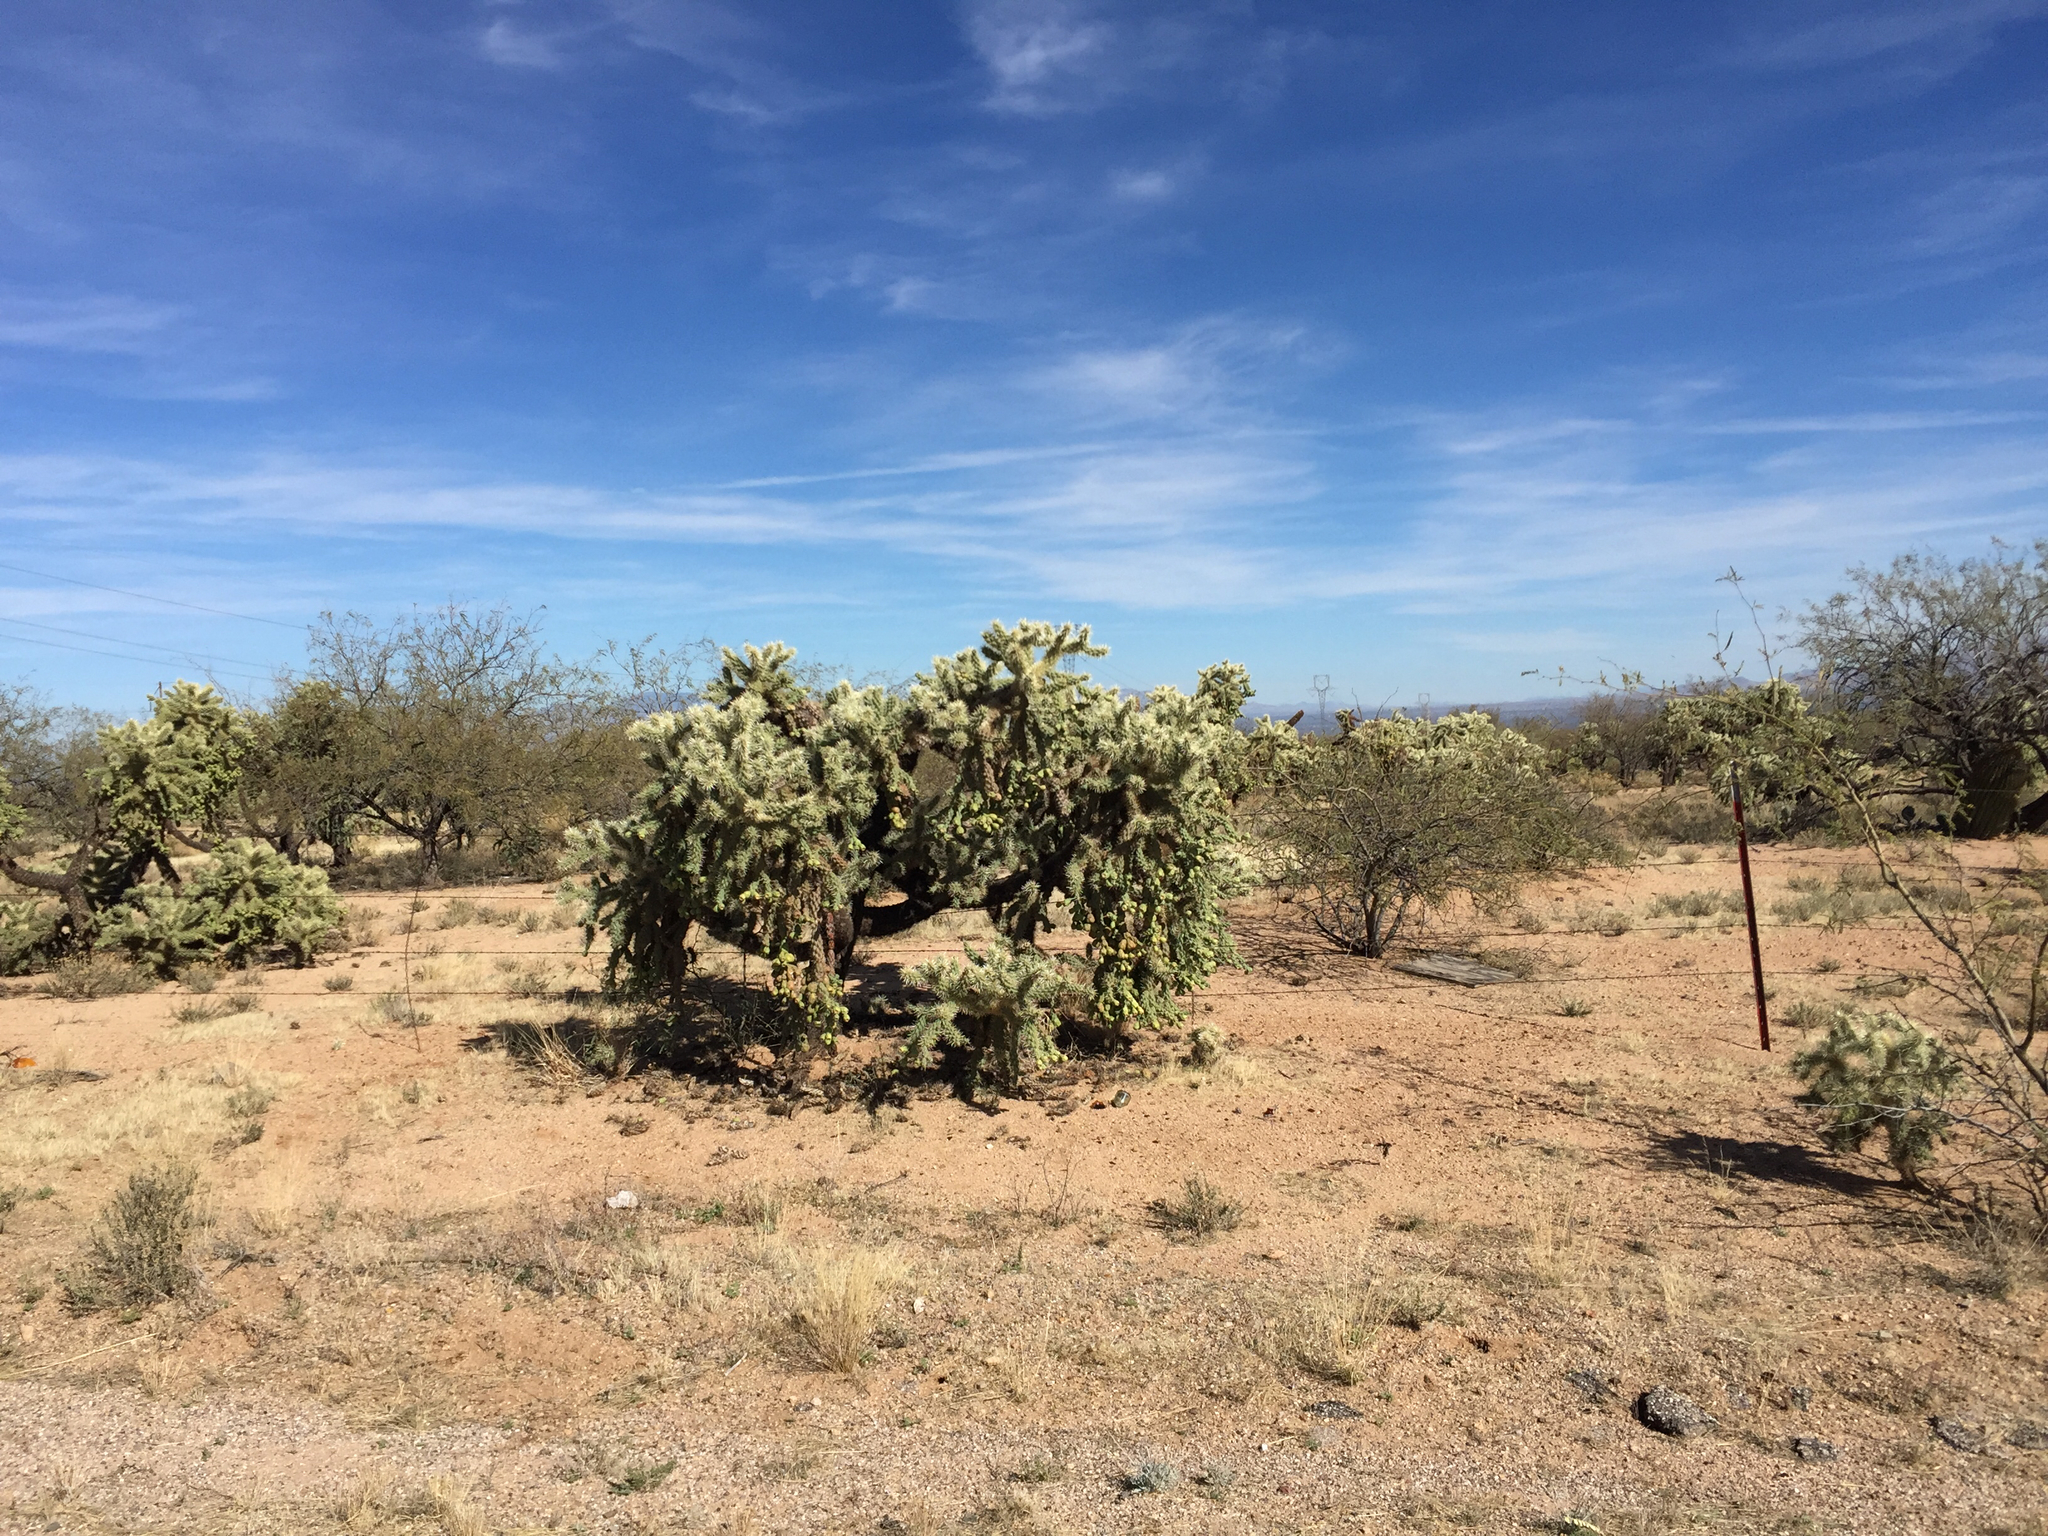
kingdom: Plantae
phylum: Tracheophyta
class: Magnoliopsida
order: Caryophyllales
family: Cactaceae
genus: Cylindropuntia
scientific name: Cylindropuntia fulgida
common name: Jumping cholla
